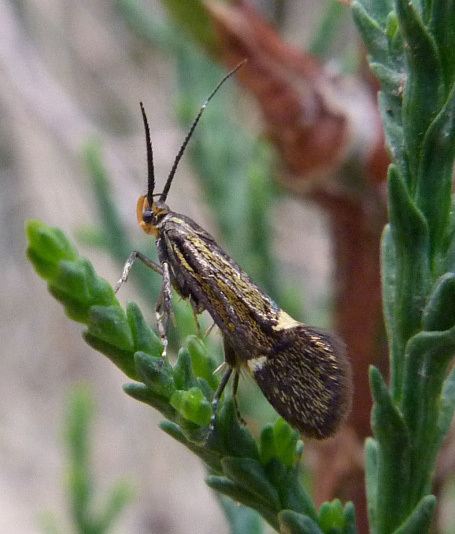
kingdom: Animalia
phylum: Arthropoda
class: Insecta
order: Lepidoptera
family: Oecophoridae
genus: Dafa
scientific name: Dafa Esperia sulphurella
